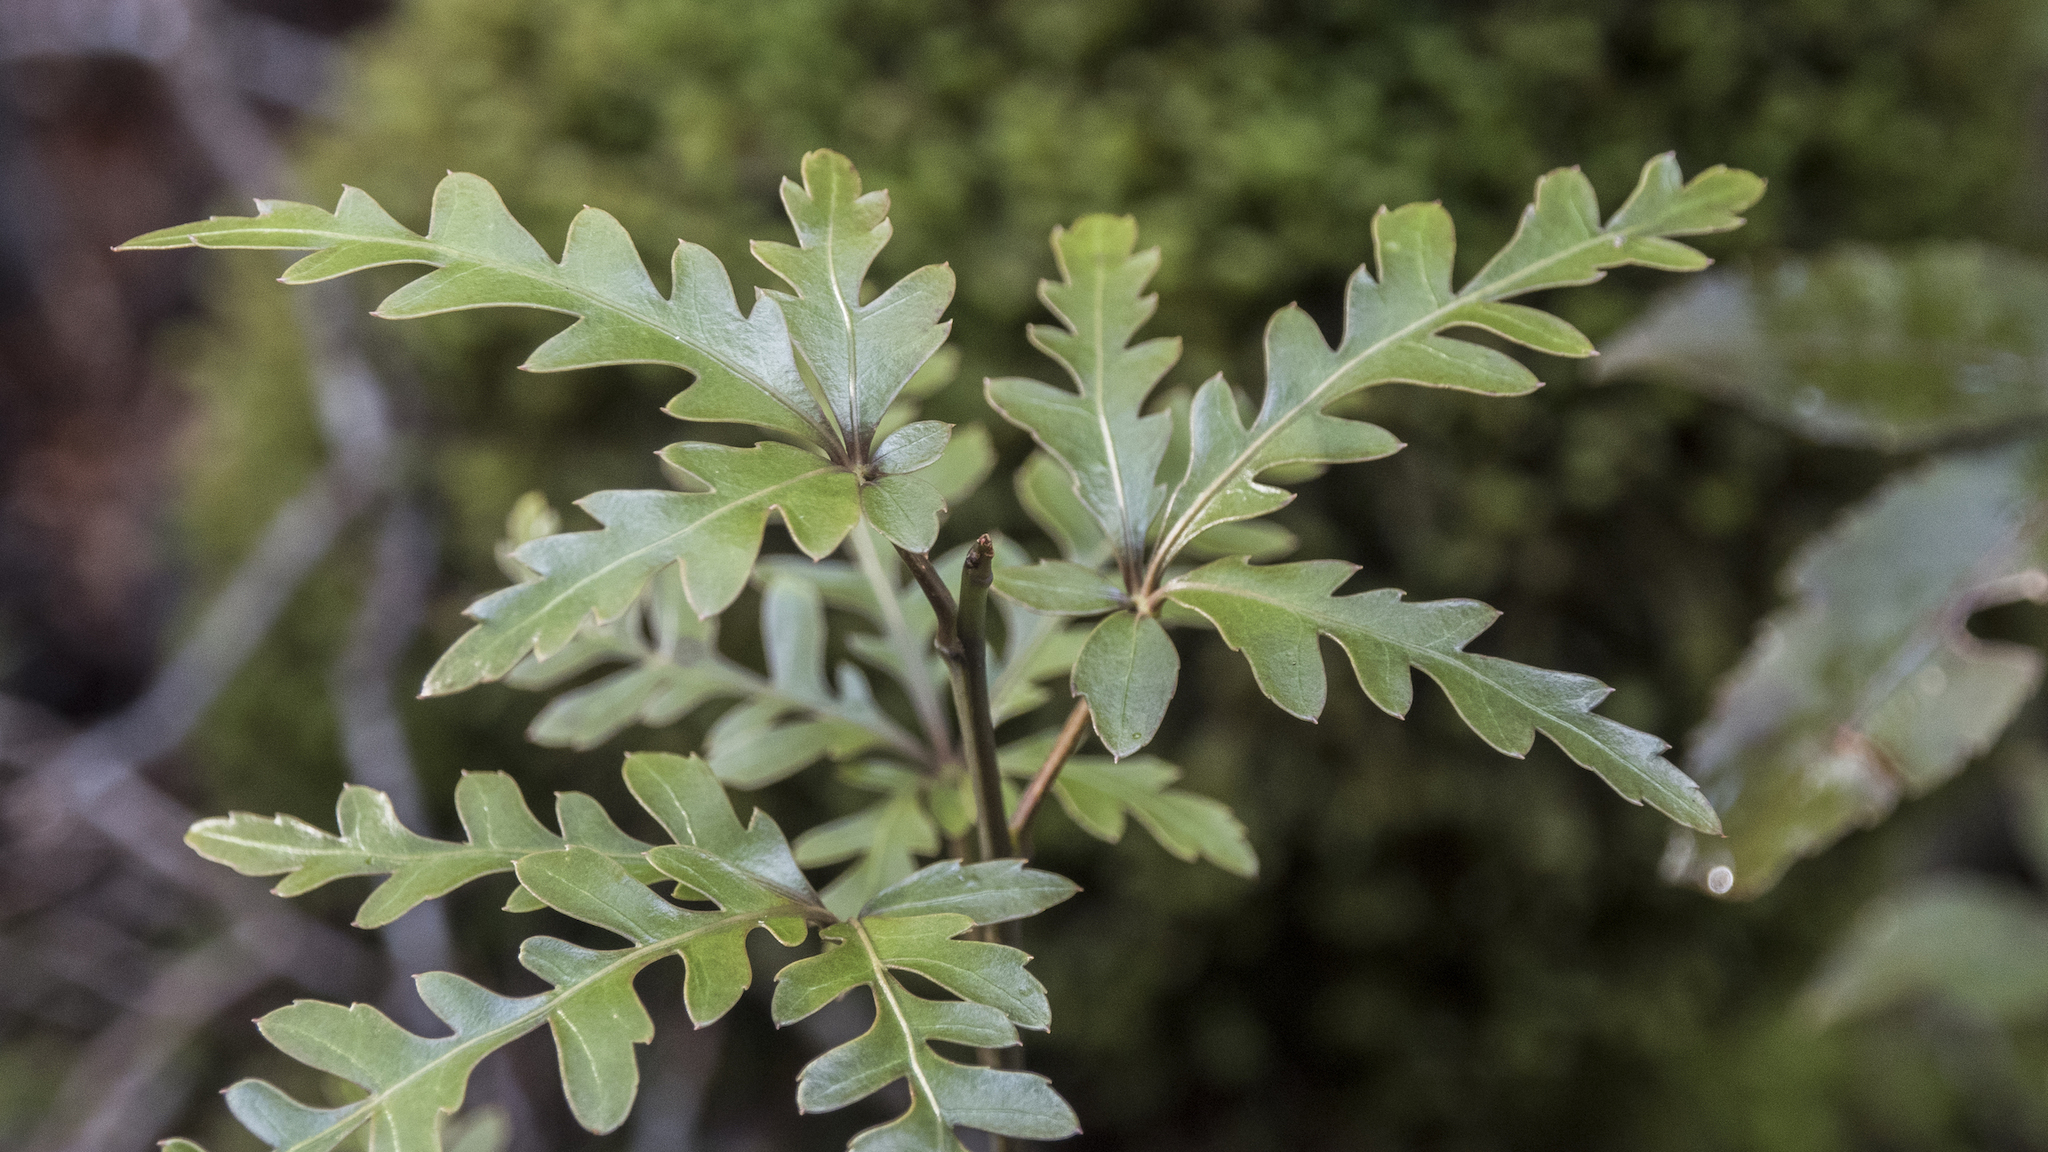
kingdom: Plantae
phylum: Tracheophyta
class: Magnoliopsida
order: Apiales
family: Araliaceae
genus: Raukaua
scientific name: Raukaua simplex
